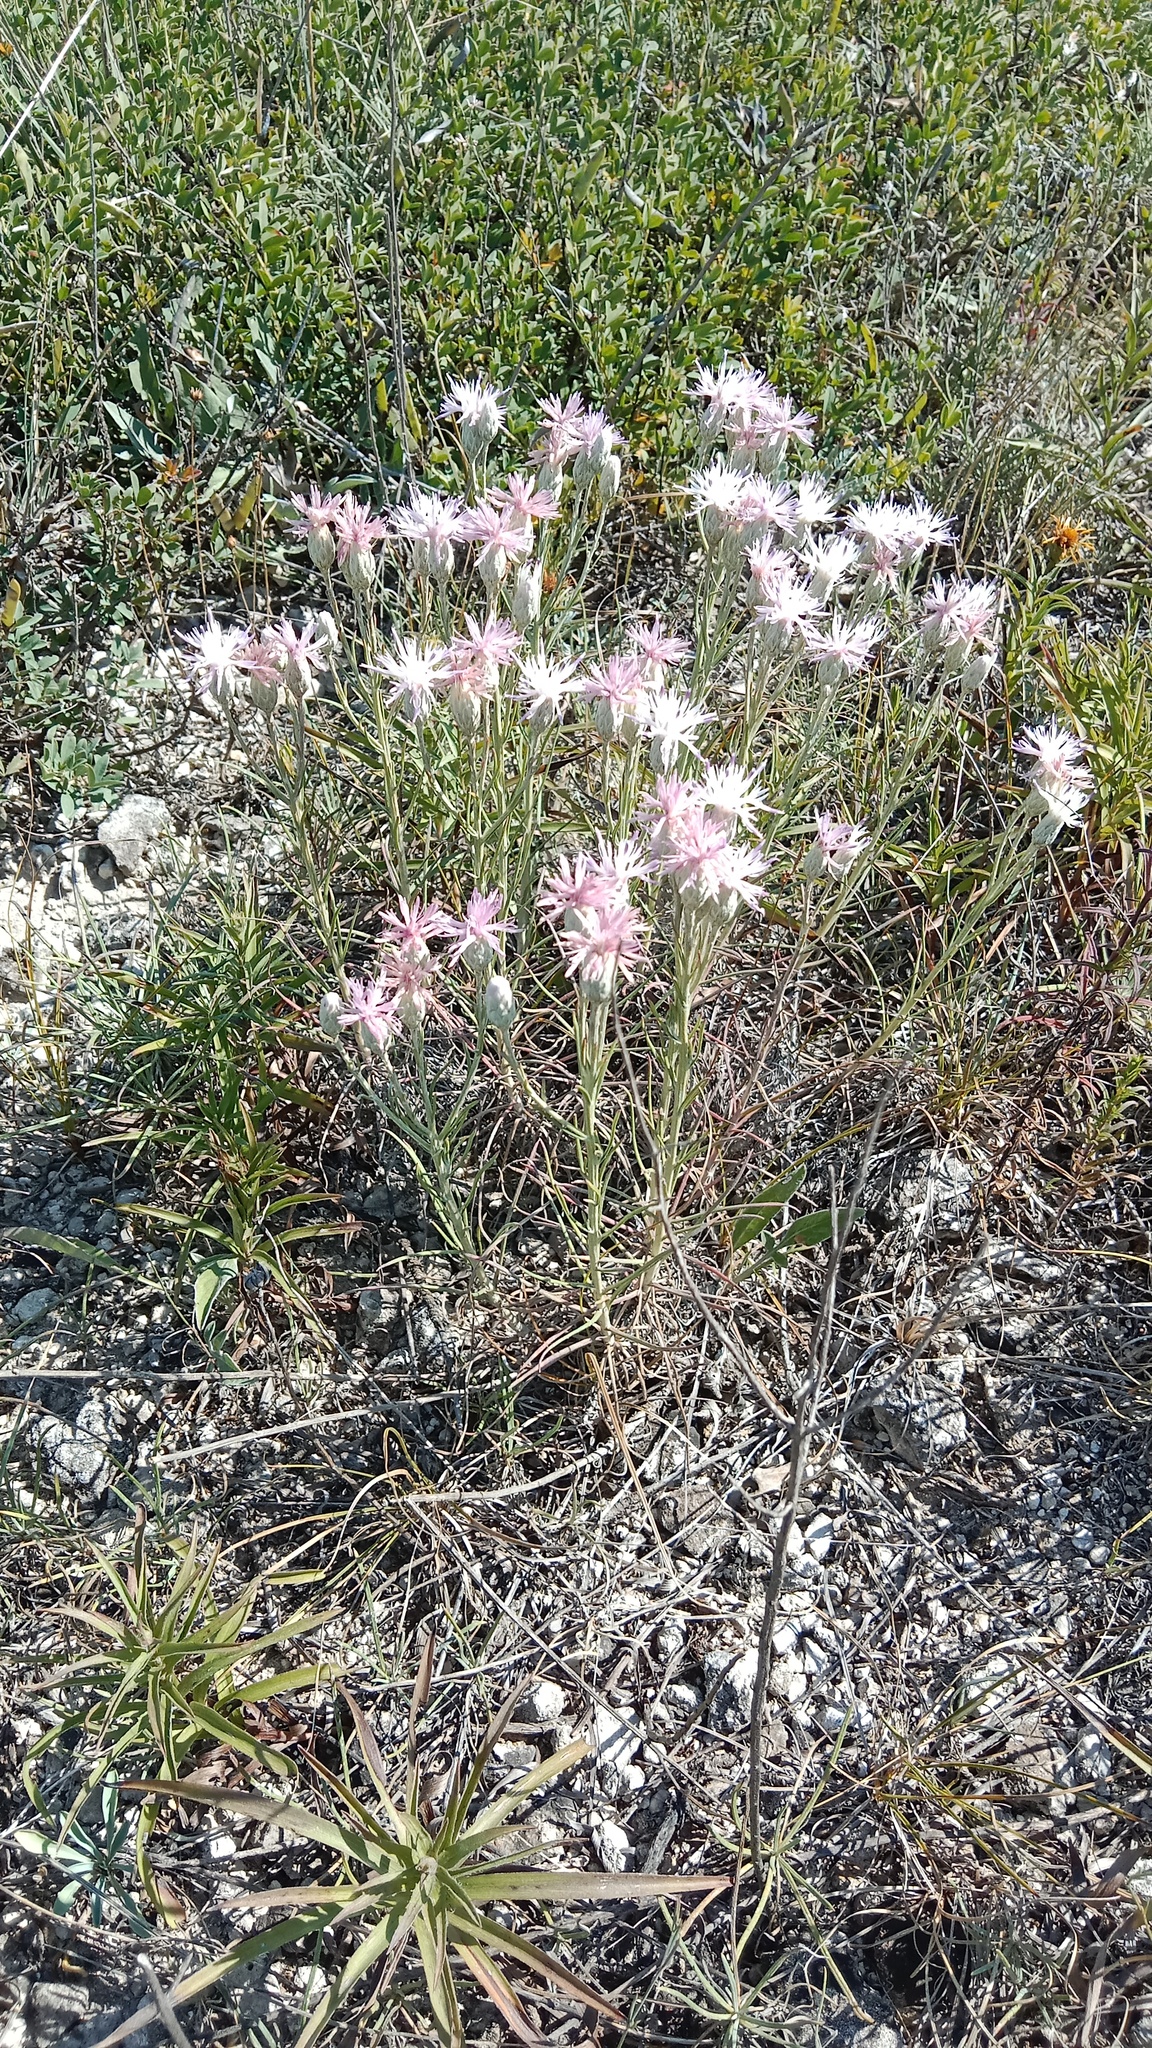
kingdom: Plantae
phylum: Tracheophyta
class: Magnoliopsida
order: Asterales
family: Asteraceae
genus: Jurinea
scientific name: Jurinea stoechadifolia
